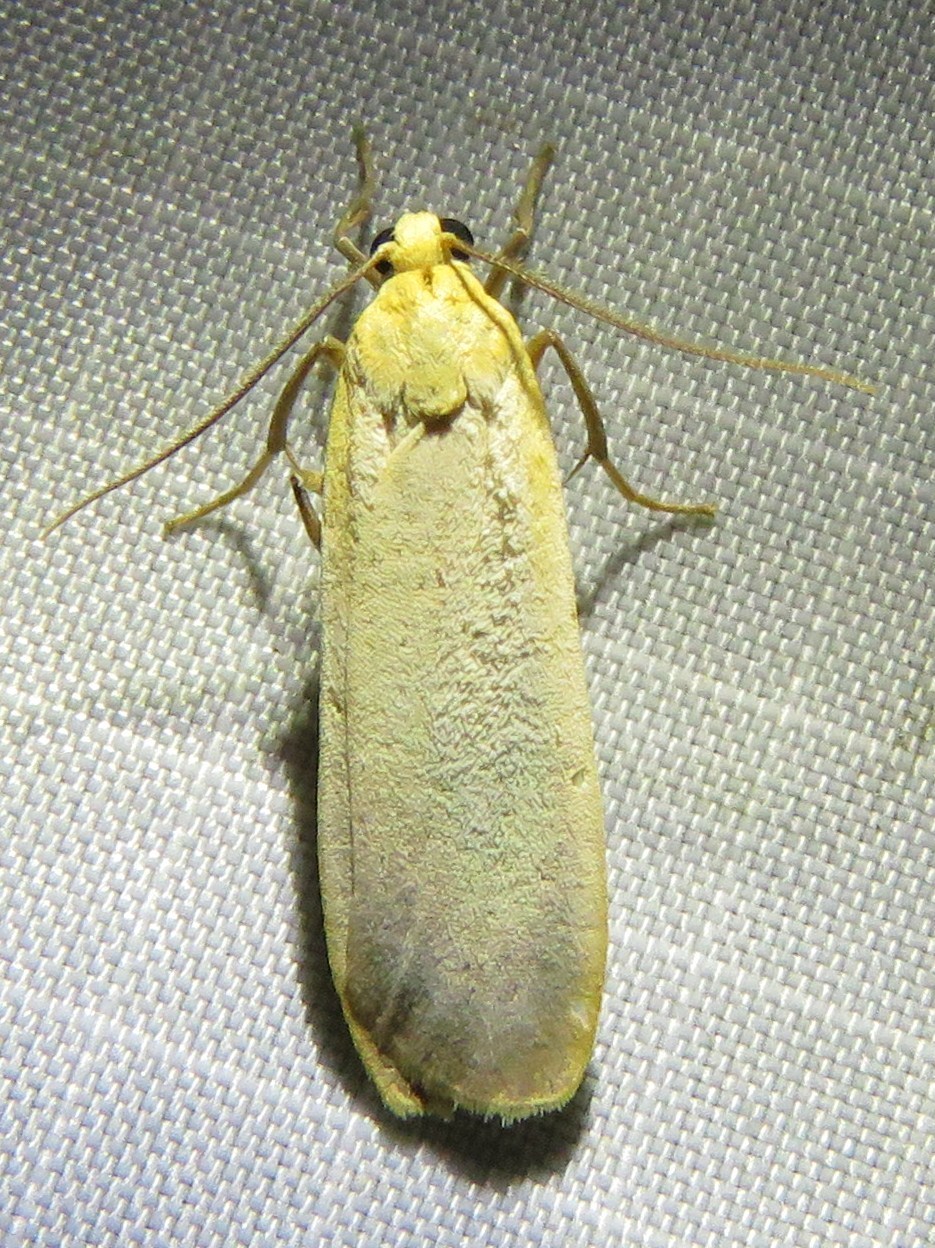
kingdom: Animalia
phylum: Arthropoda
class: Insecta
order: Lepidoptera
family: Erebidae
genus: Katha
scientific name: Katha depressa
